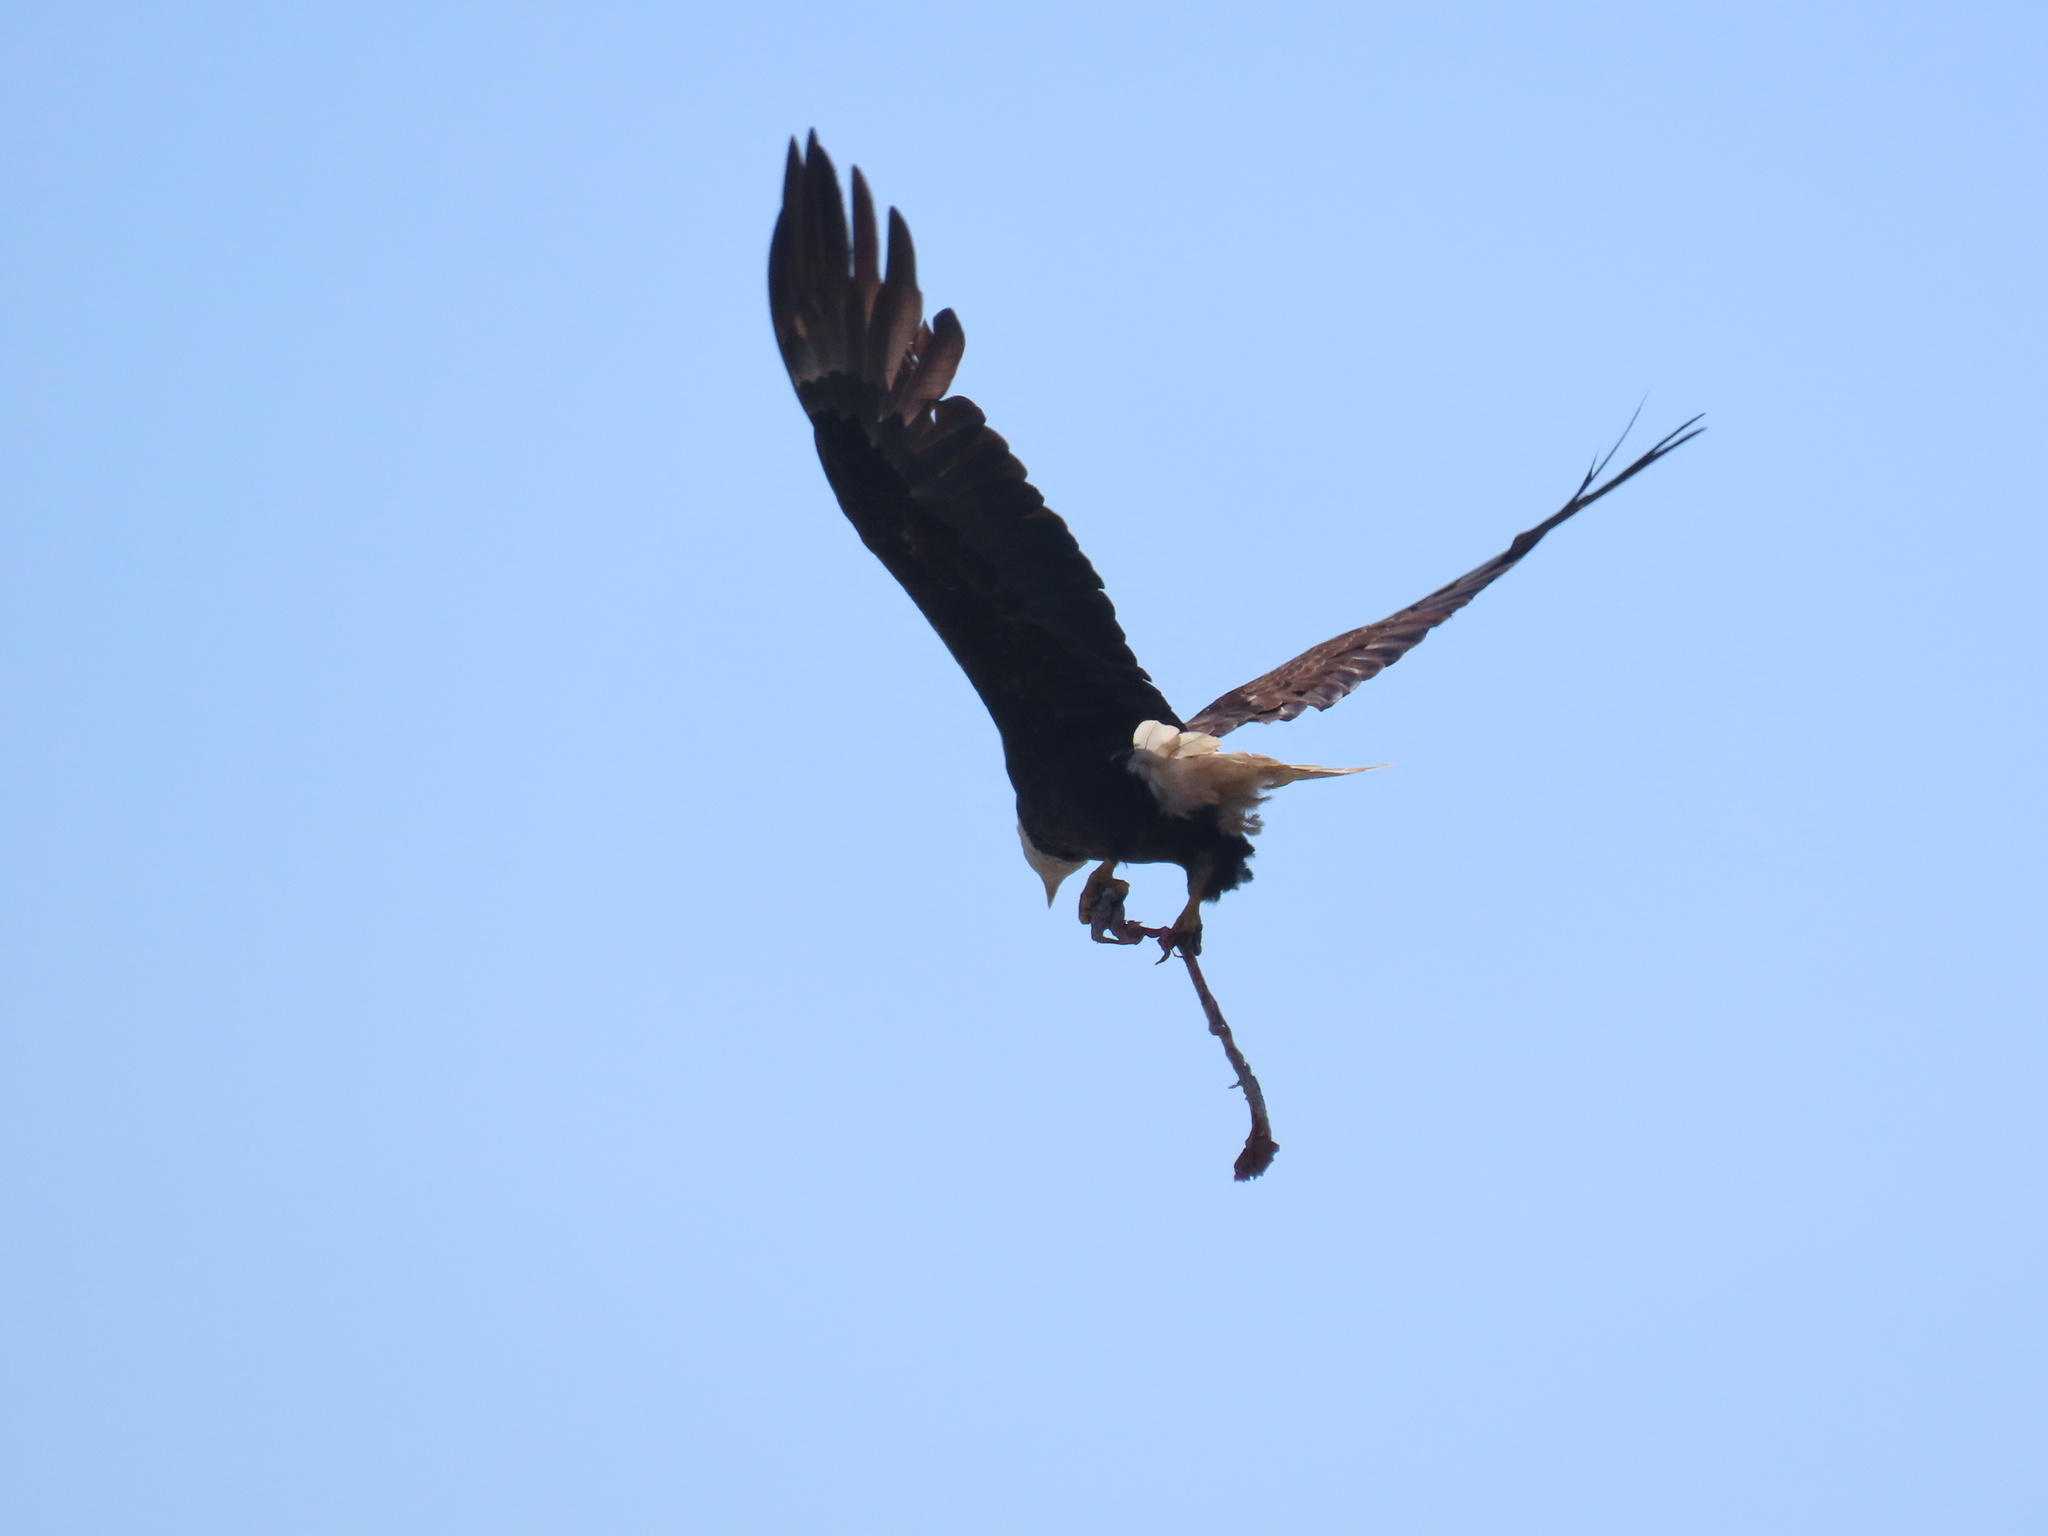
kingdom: Animalia
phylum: Chordata
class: Aves
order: Accipitriformes
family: Accipitridae
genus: Haliaeetus
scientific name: Haliaeetus leucocephalus
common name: Bald eagle
